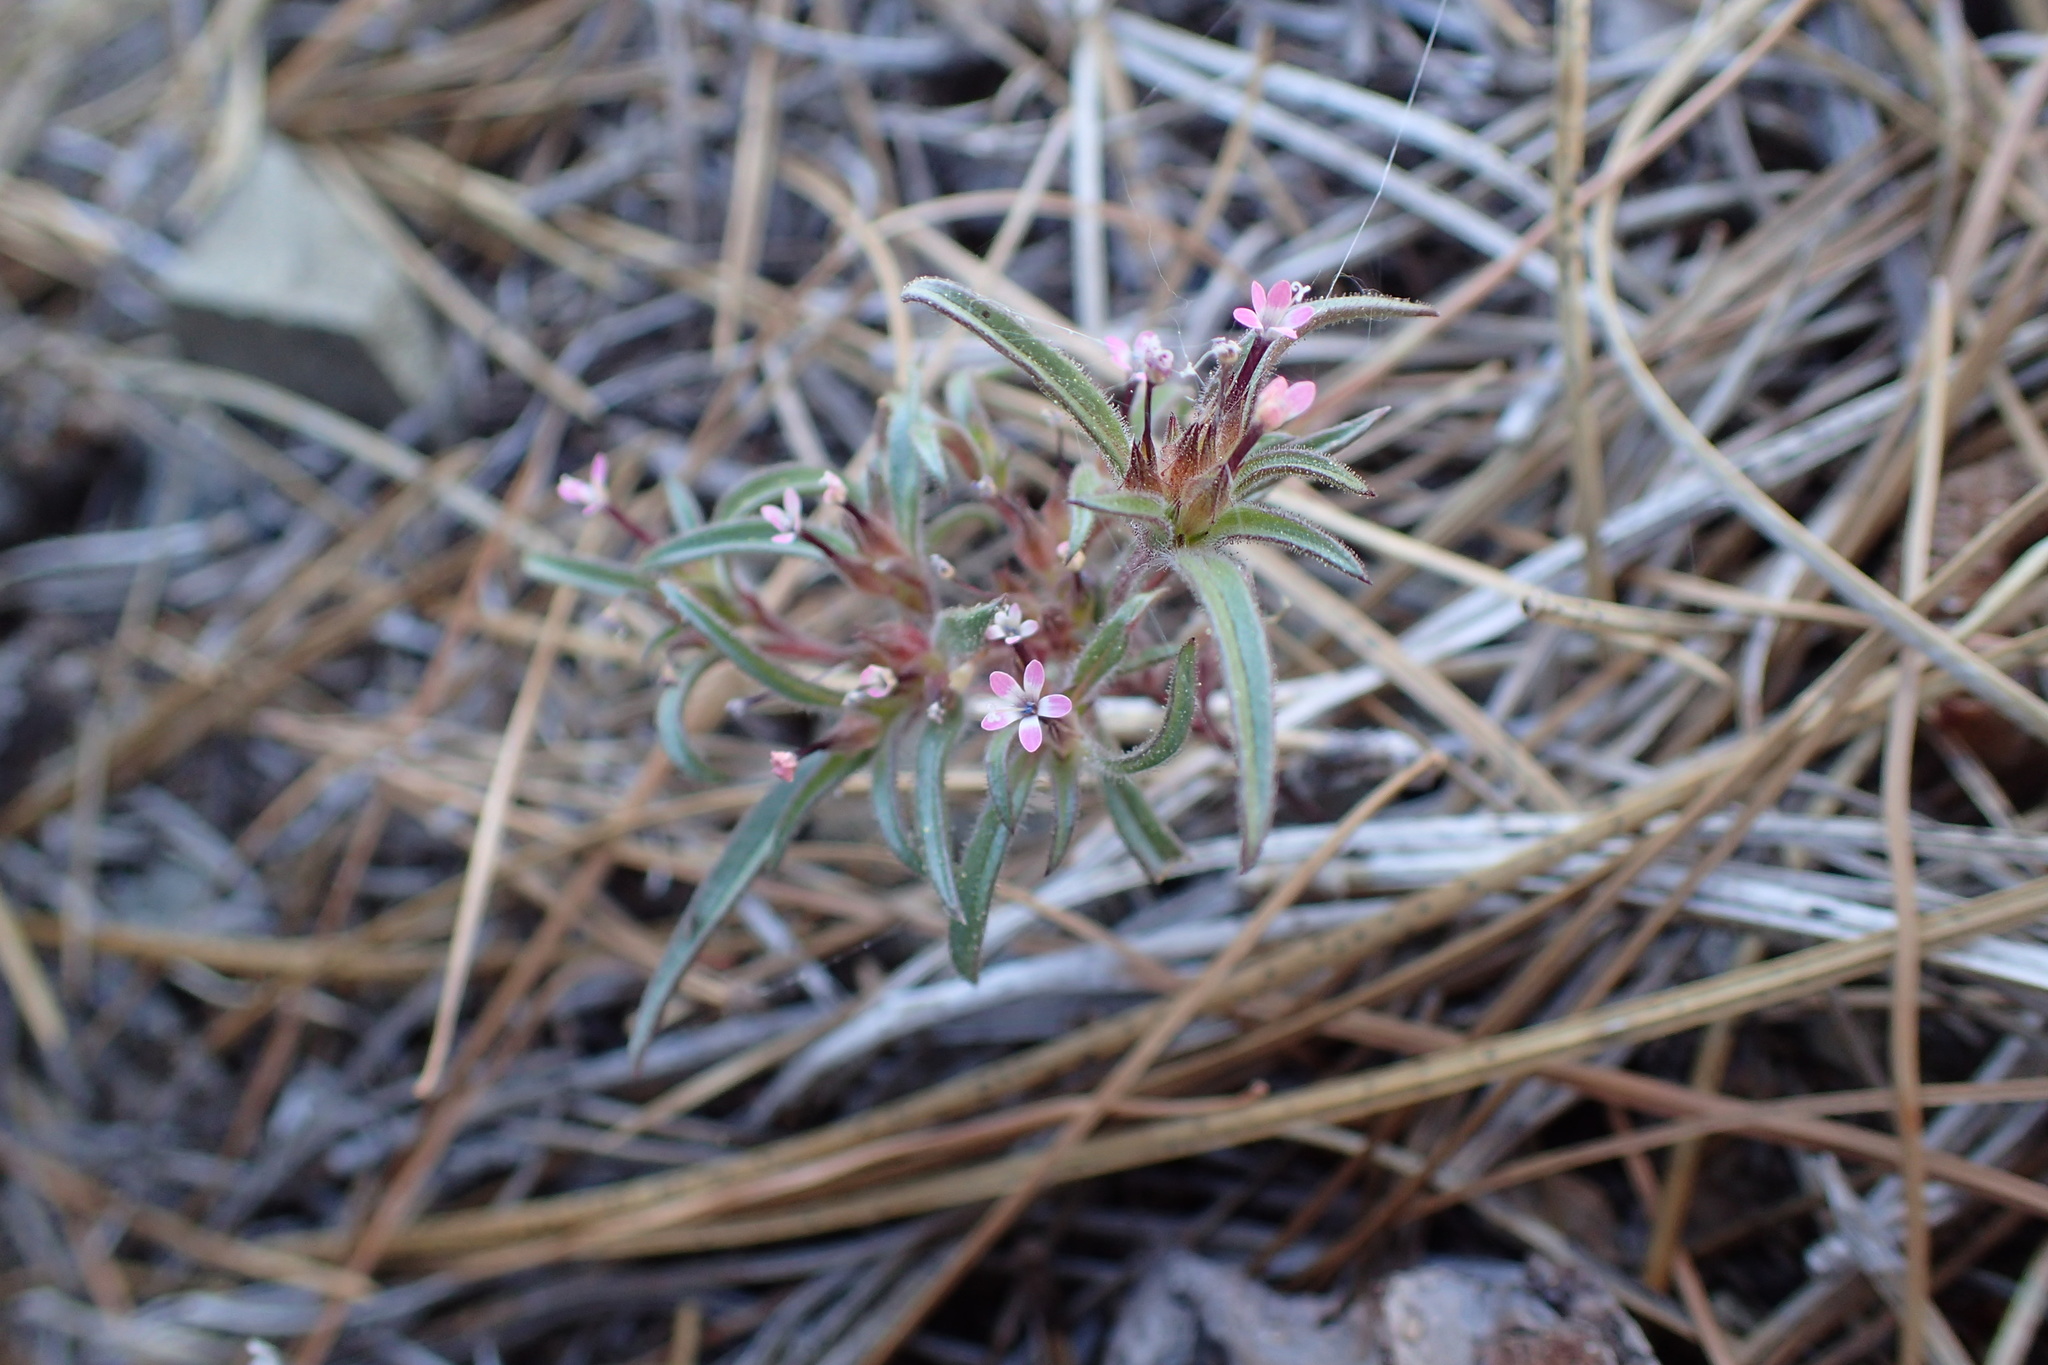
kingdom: Plantae
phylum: Tracheophyta
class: Magnoliopsida
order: Ericales
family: Polemoniaceae
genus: Collomia
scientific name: Collomia tracyi
